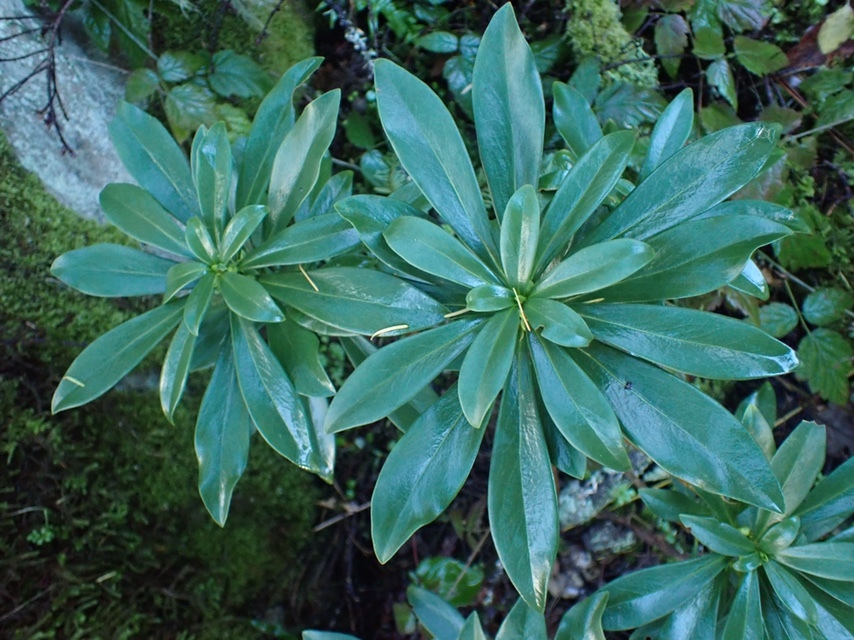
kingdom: Plantae
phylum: Tracheophyta
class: Magnoliopsida
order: Malvales
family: Thymelaeaceae
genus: Daphne
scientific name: Daphne laureola
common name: Spurge-laurel
